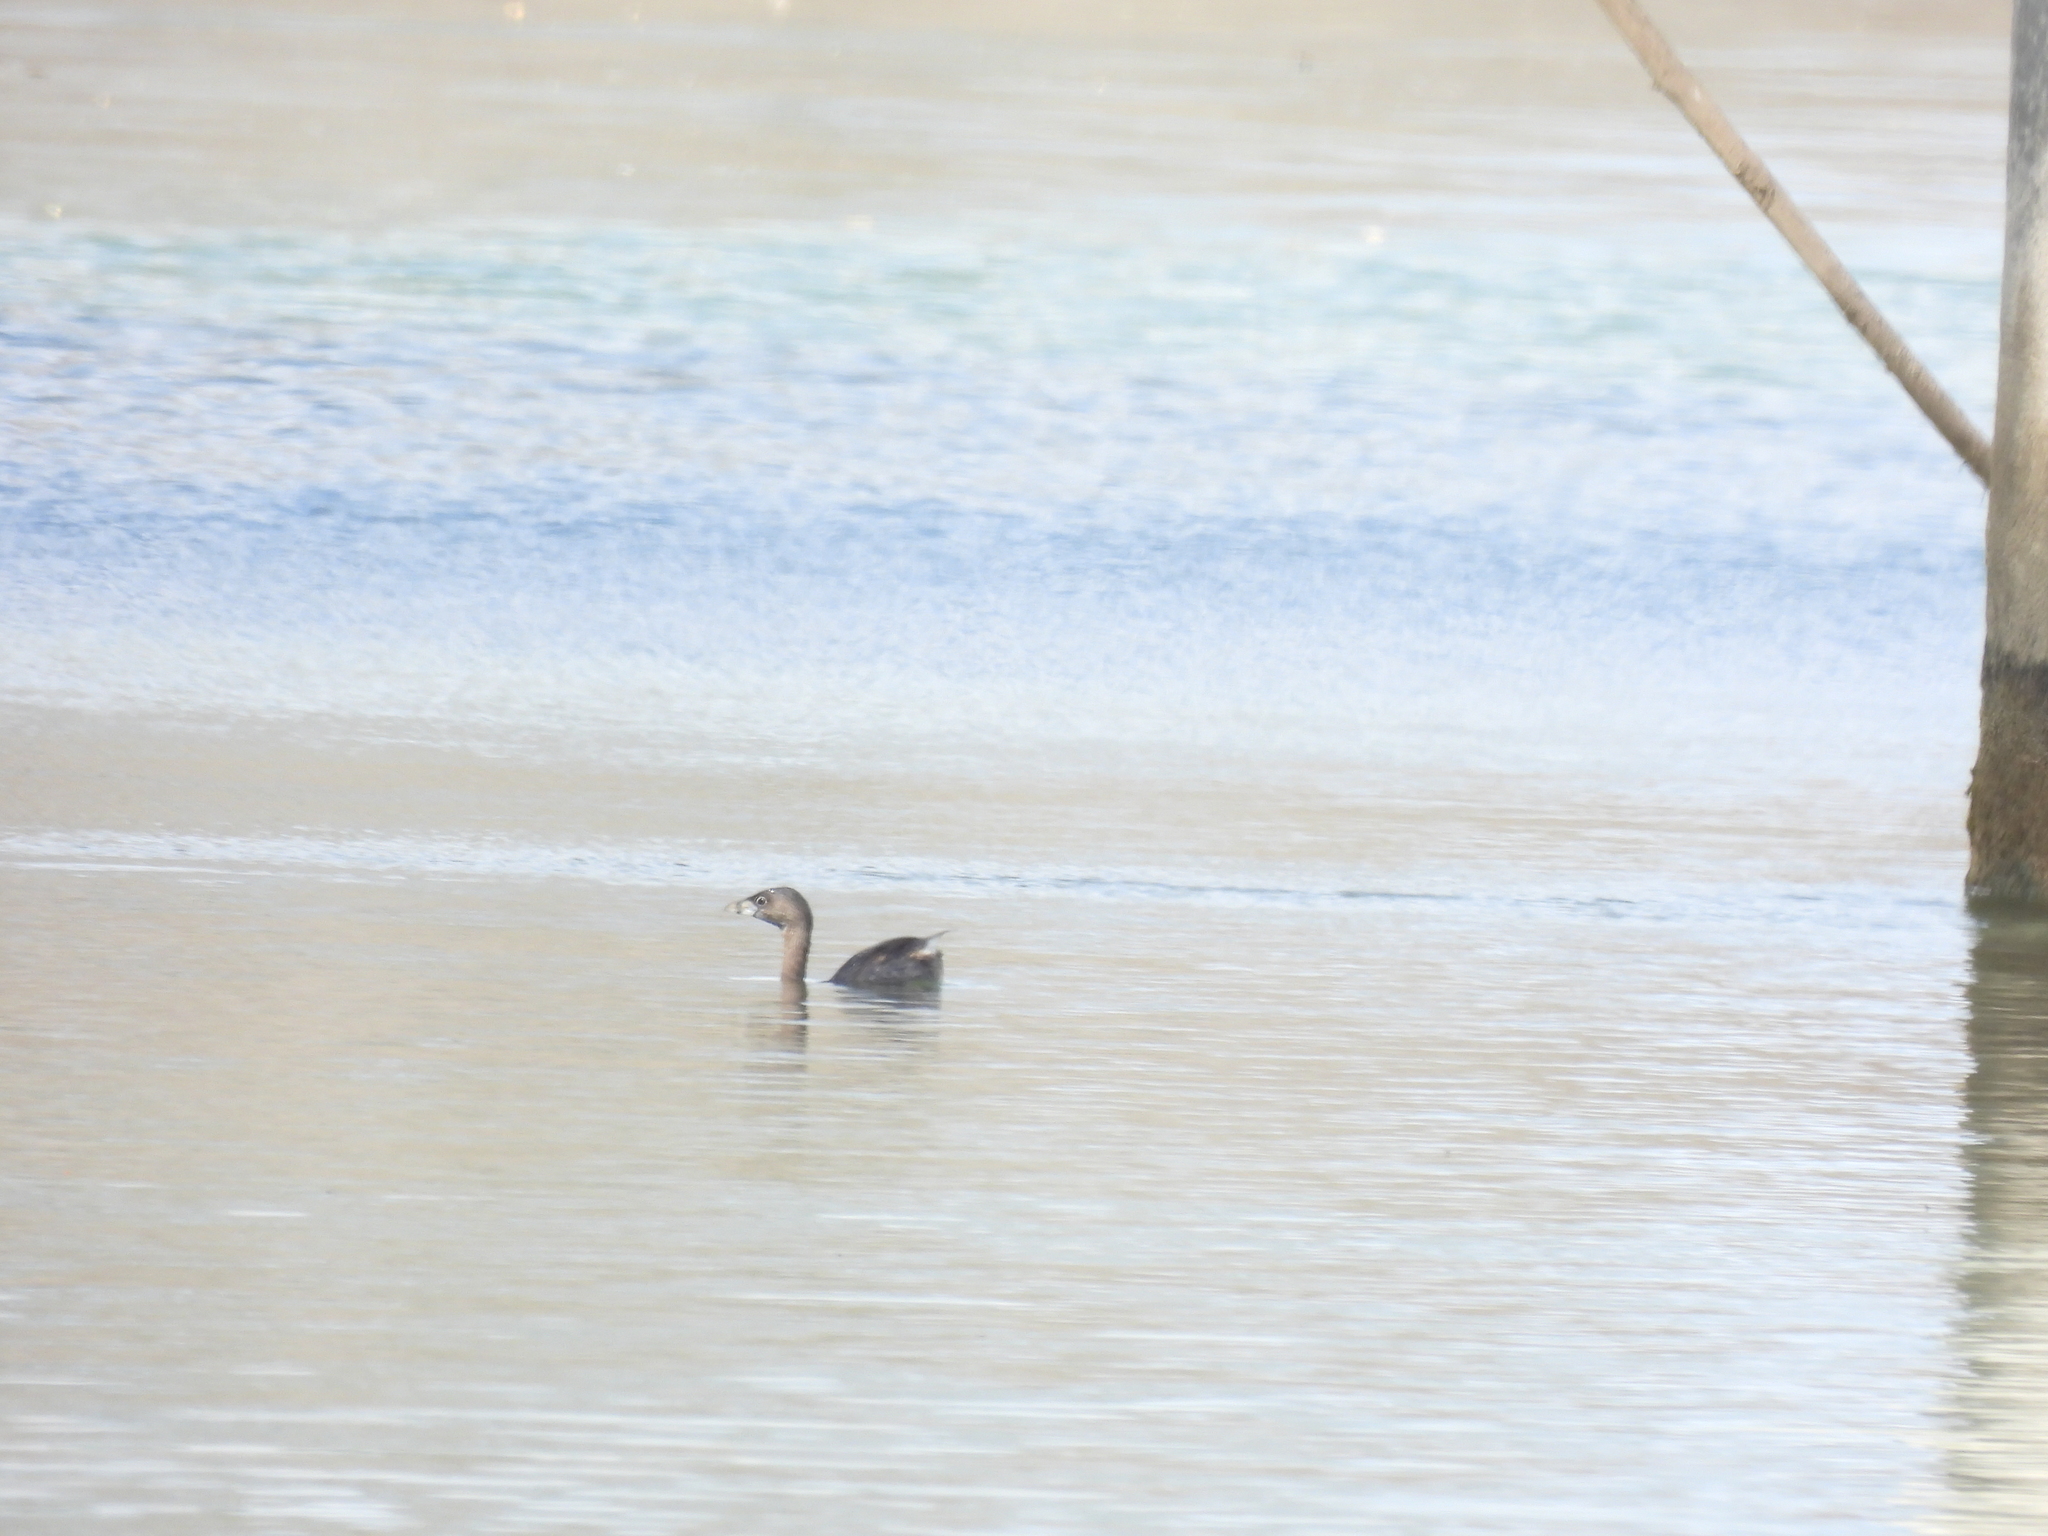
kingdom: Animalia
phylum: Chordata
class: Aves
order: Podicipediformes
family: Podicipedidae
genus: Podilymbus
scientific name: Podilymbus podiceps
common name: Pied-billed grebe
